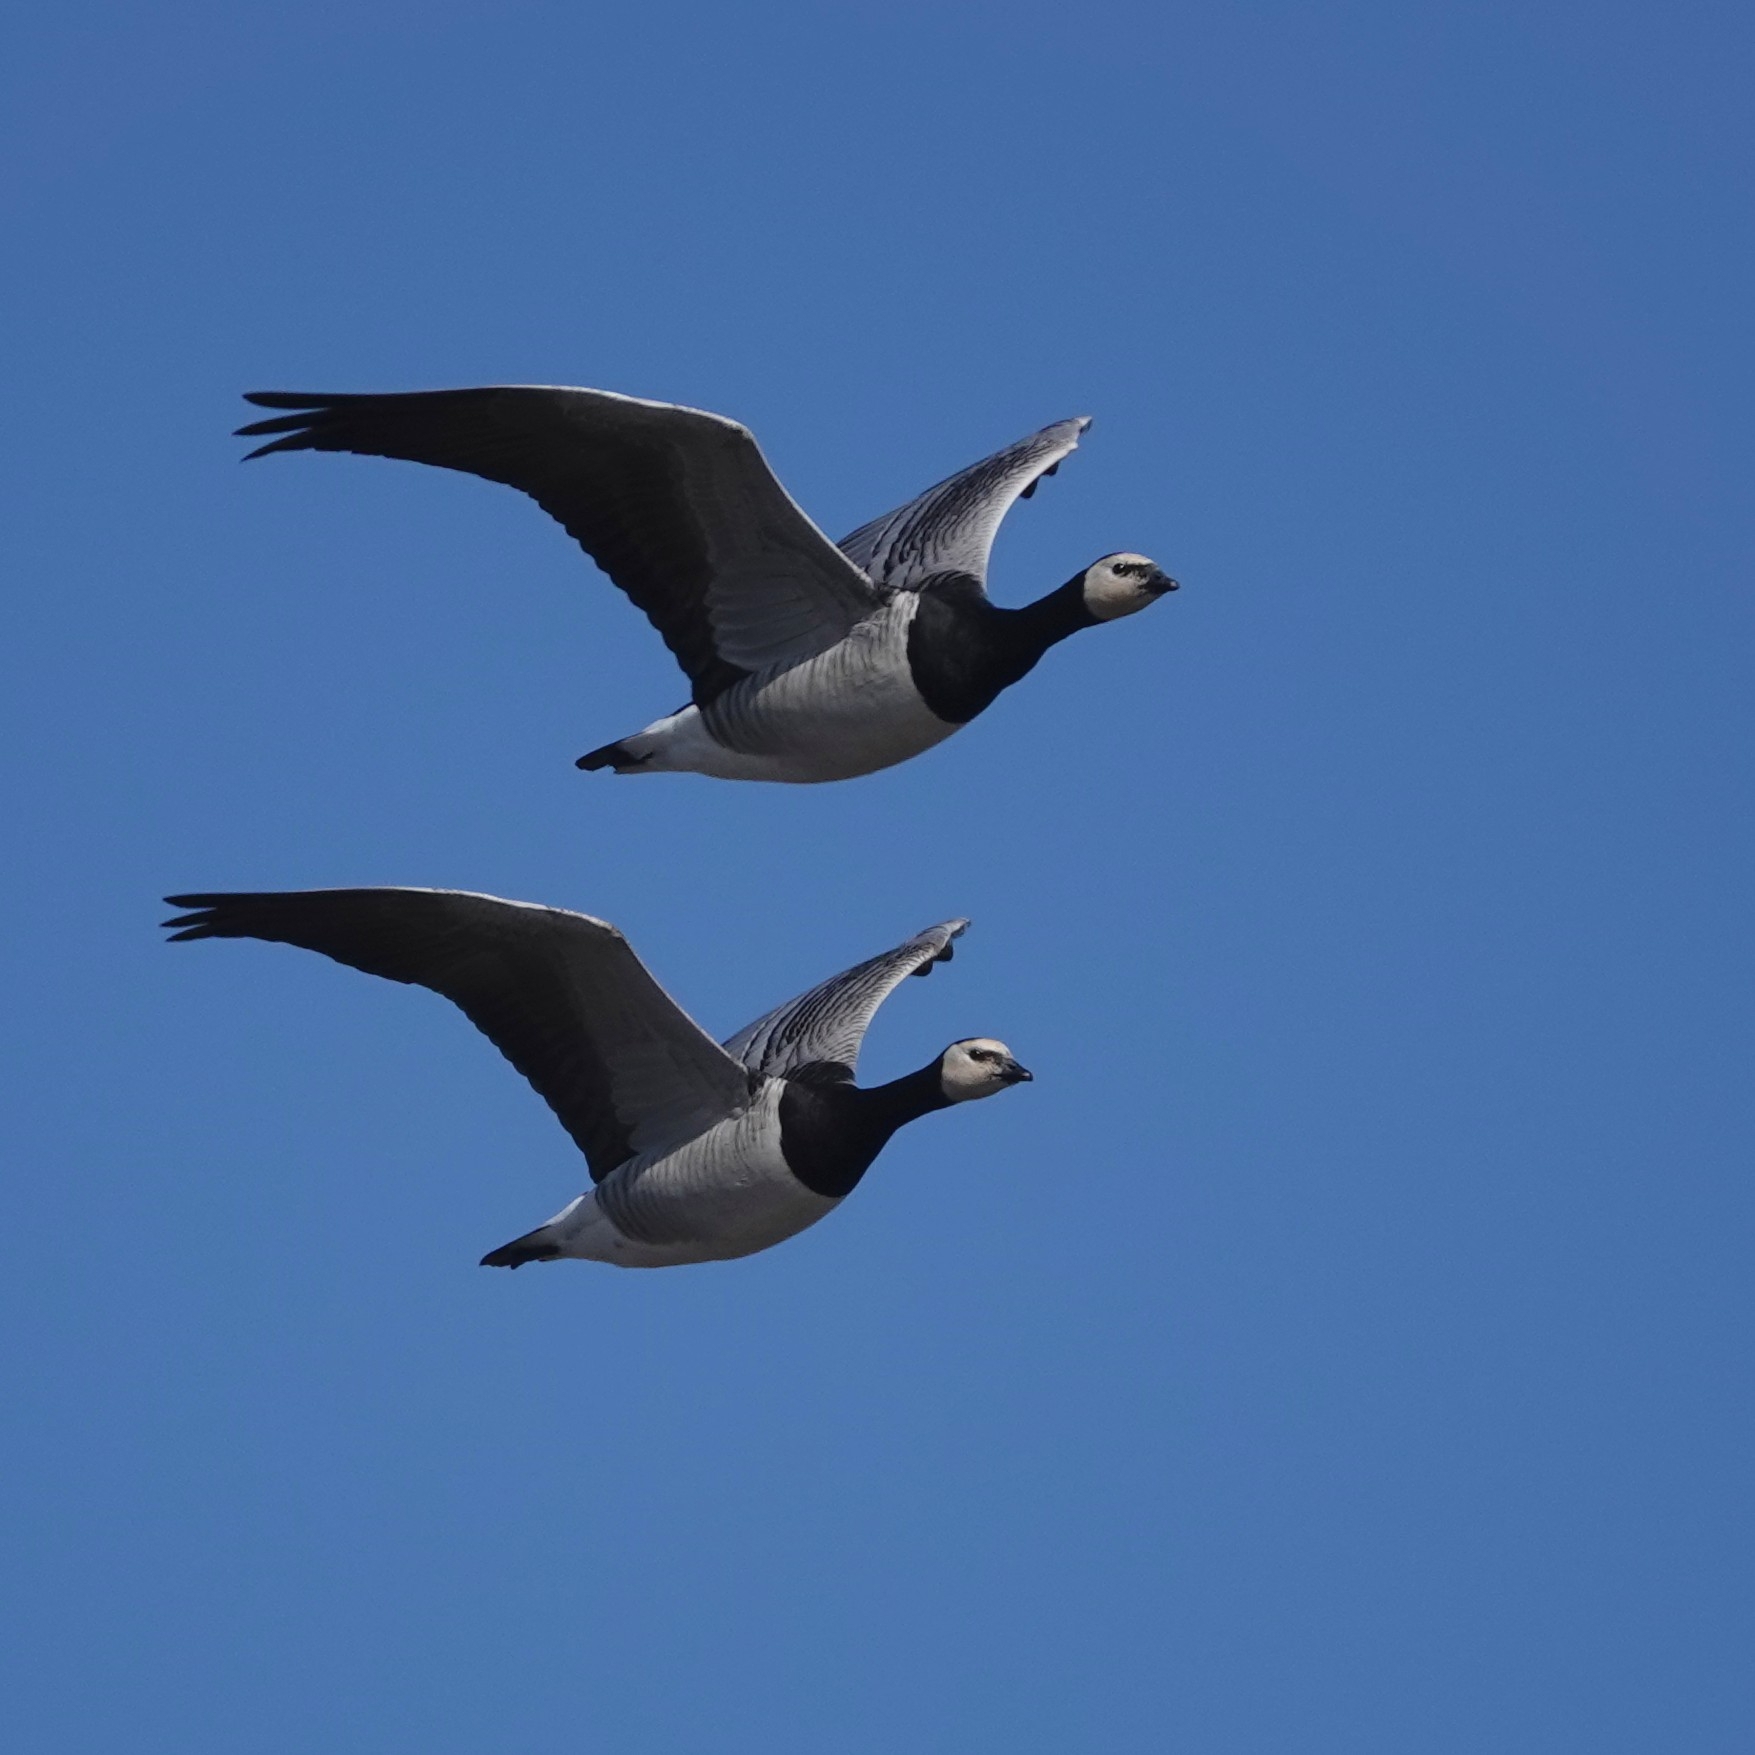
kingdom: Animalia
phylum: Chordata
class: Aves
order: Anseriformes
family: Anatidae
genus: Branta
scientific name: Branta leucopsis
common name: Barnacle goose
